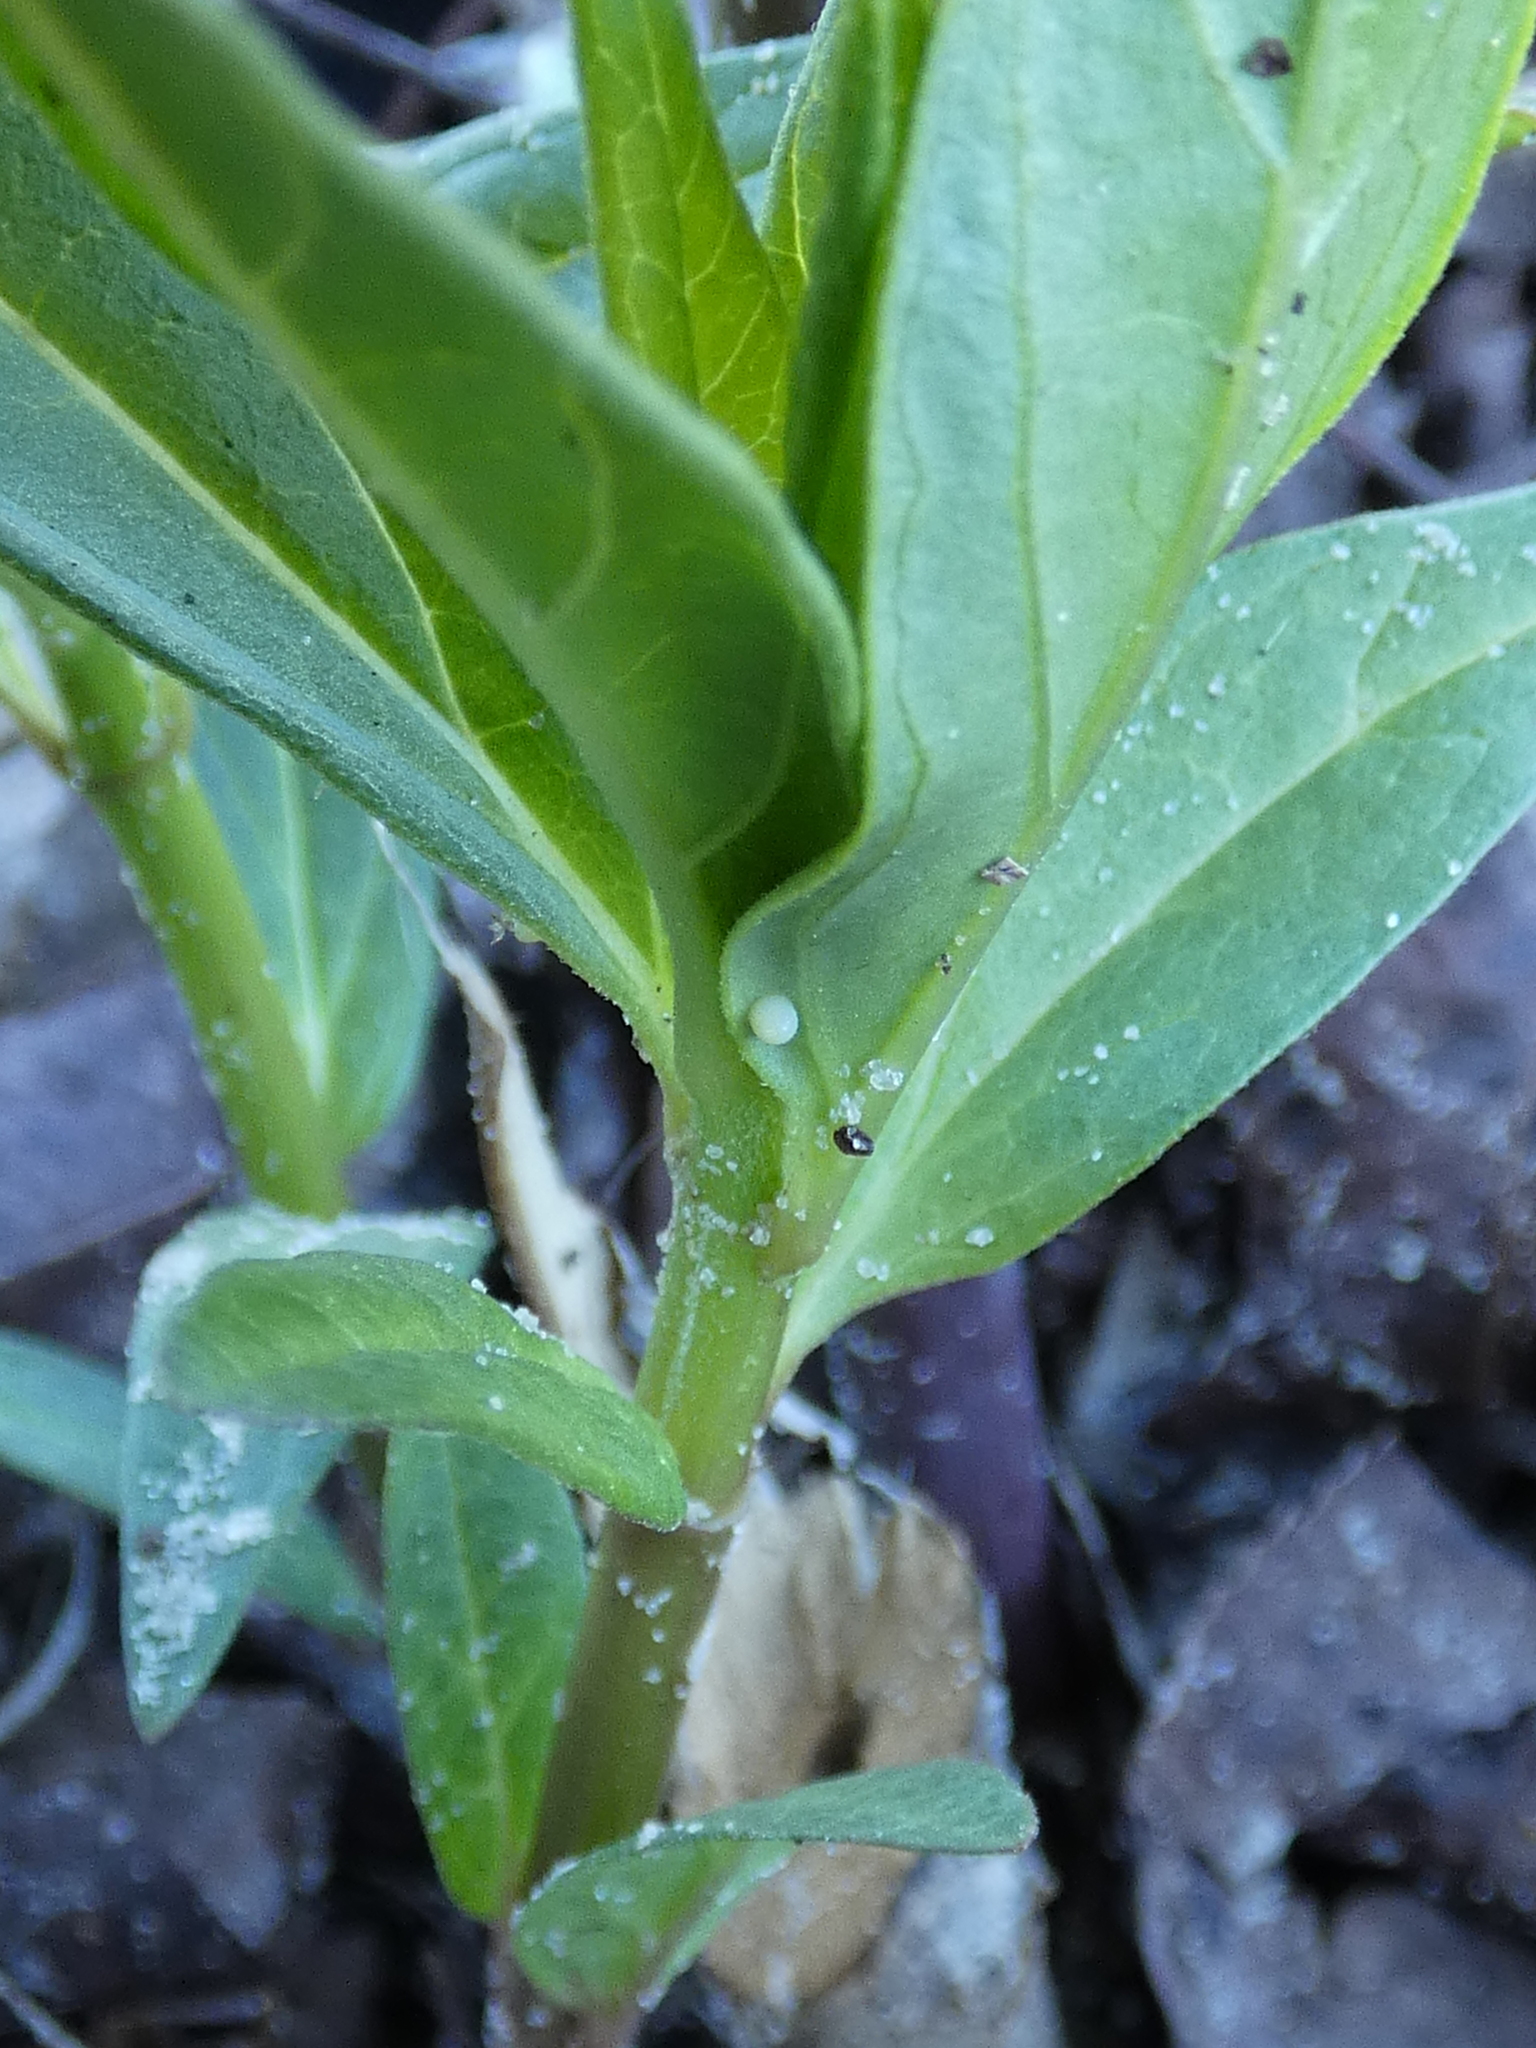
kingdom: Animalia
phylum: Arthropoda
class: Insecta
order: Lepidoptera
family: Nymphalidae
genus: Danaus
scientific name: Danaus plexippus
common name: Monarch
